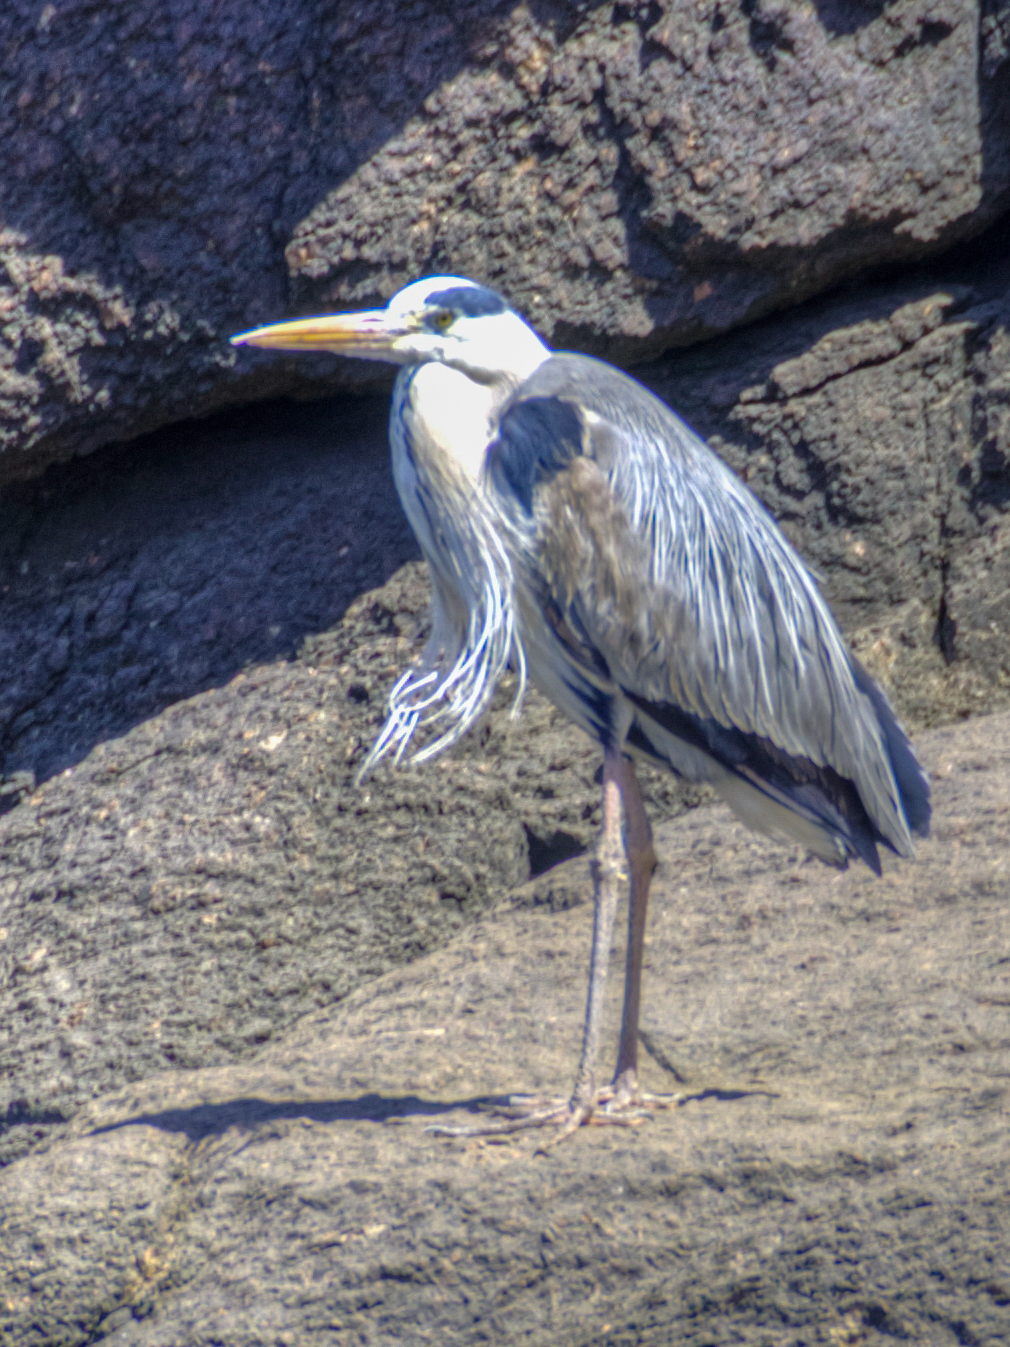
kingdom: Animalia
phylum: Chordata
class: Aves
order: Pelecaniformes
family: Ardeidae
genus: Ardea
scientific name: Ardea cinerea
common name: Grey heron
